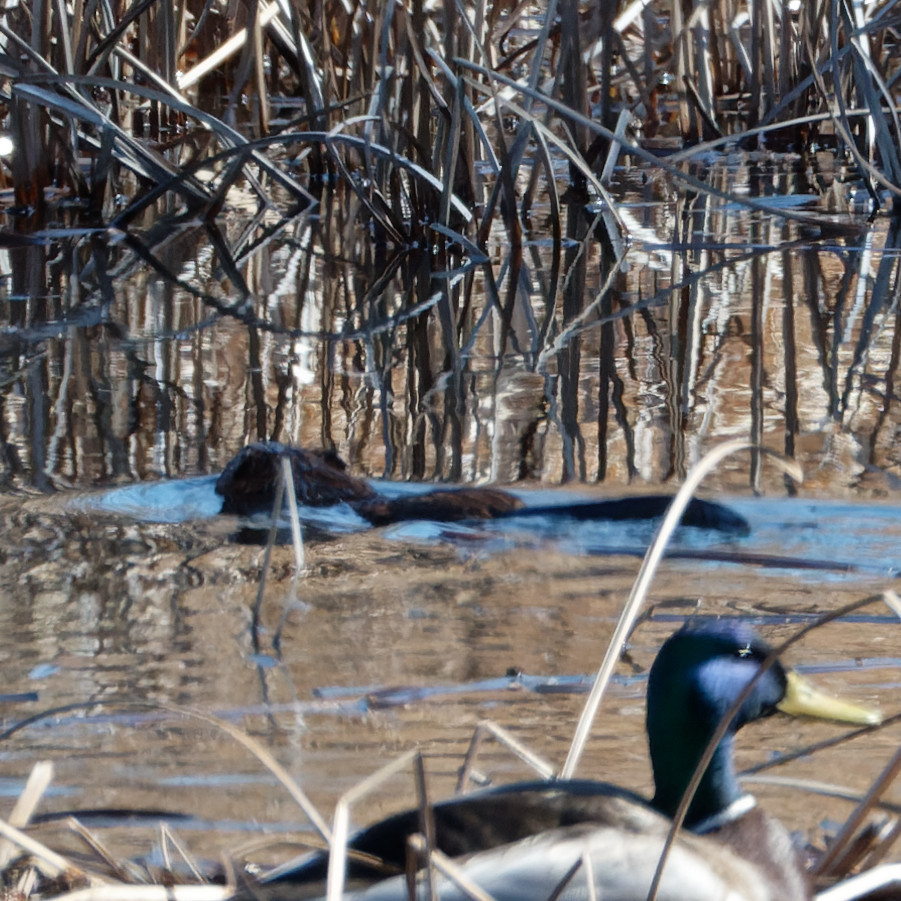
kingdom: Animalia
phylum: Chordata
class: Mammalia
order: Rodentia
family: Cricetidae
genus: Ondatra
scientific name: Ondatra zibethicus
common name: Muskrat
